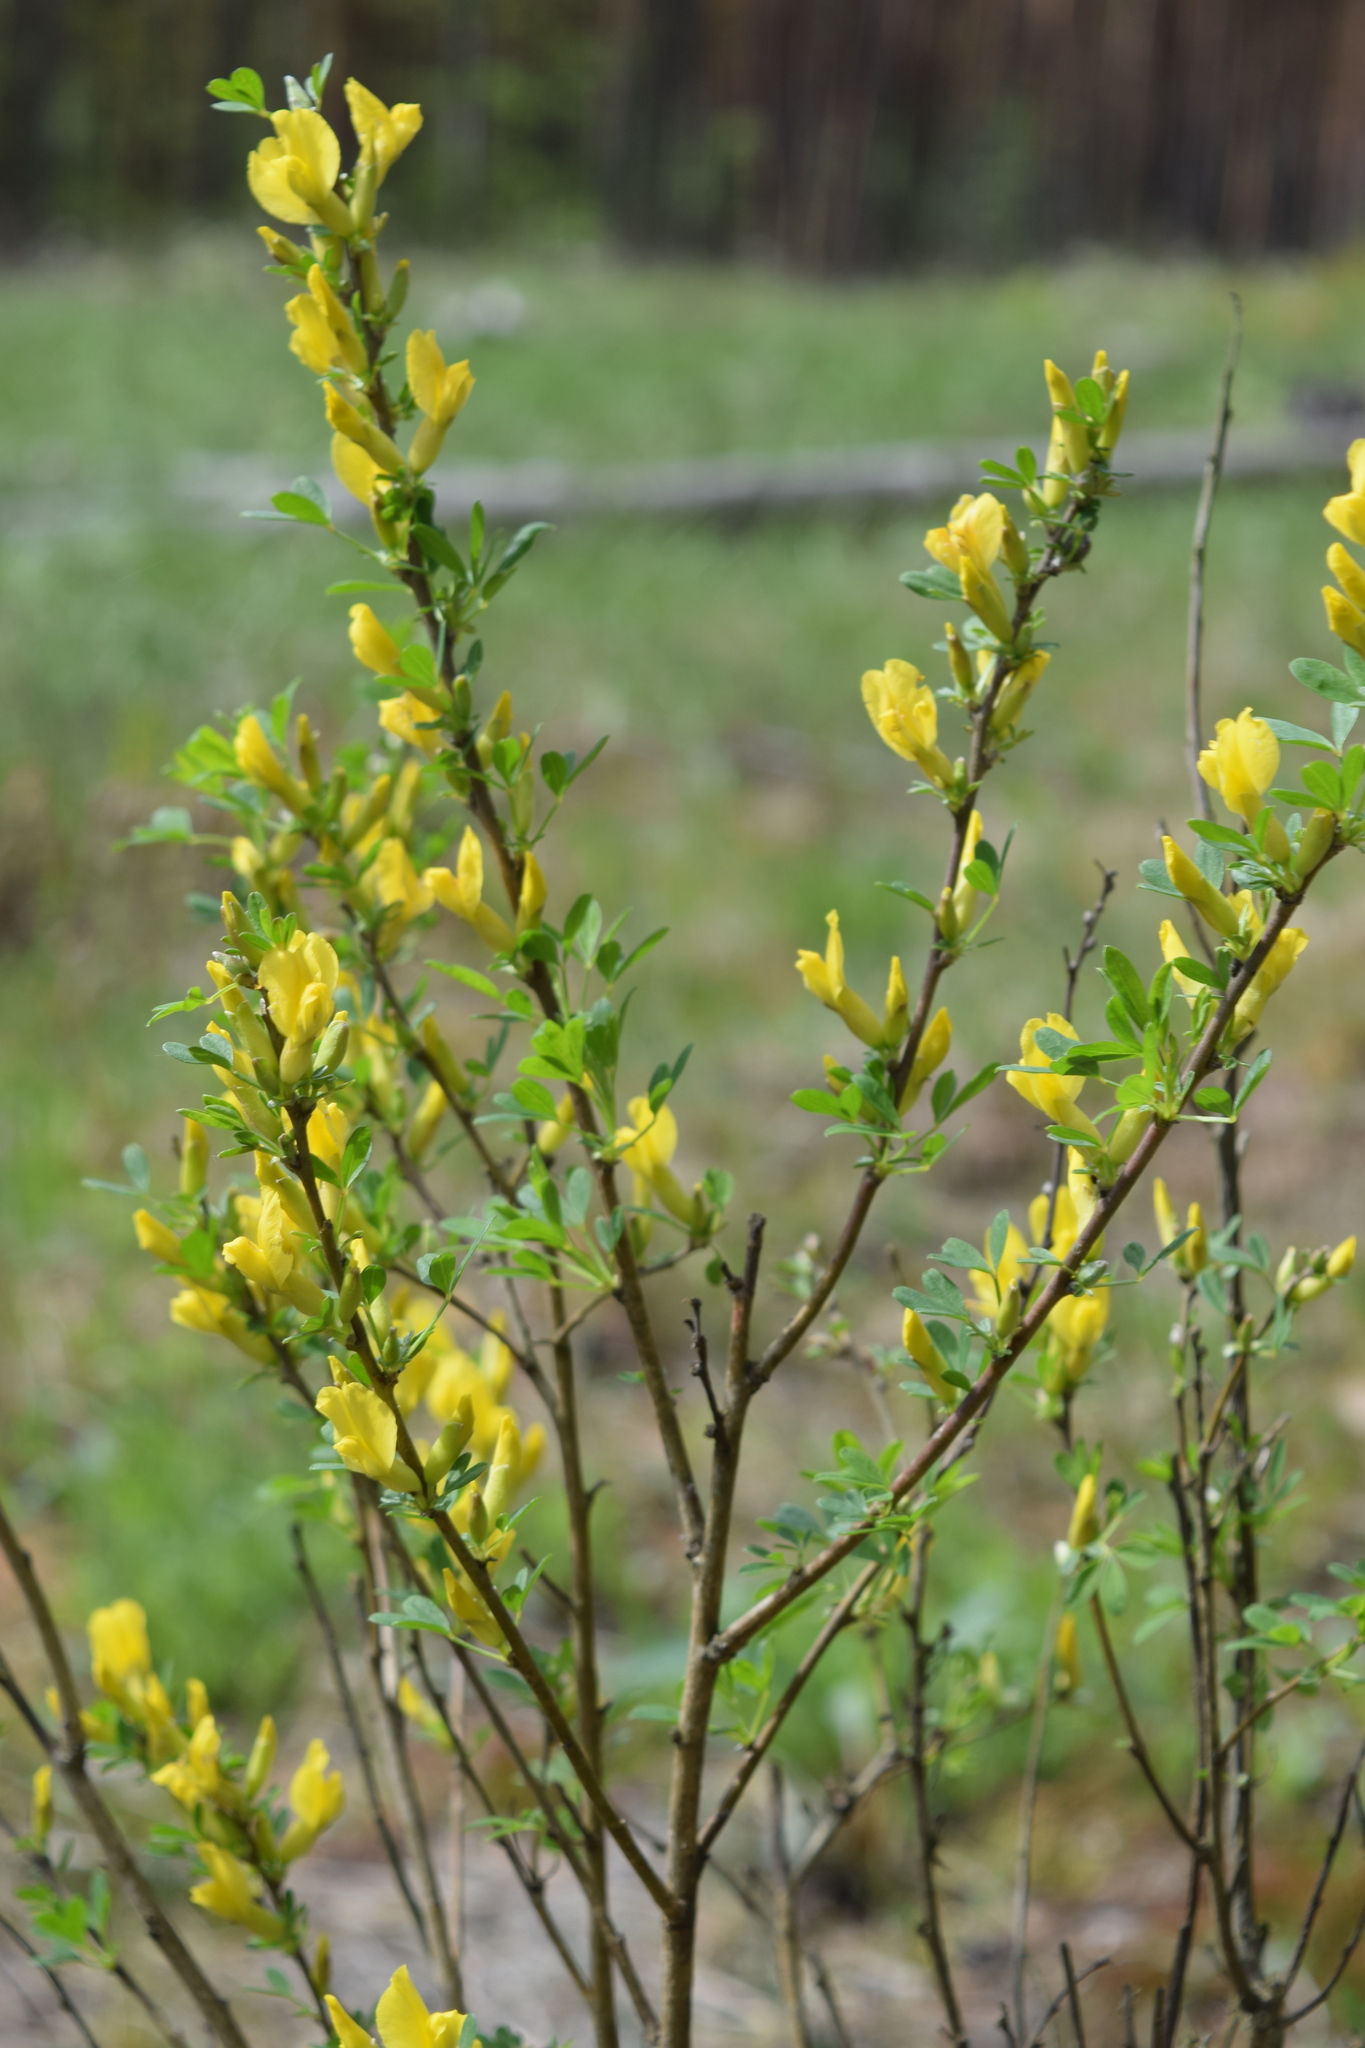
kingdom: Plantae
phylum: Tracheophyta
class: Magnoliopsida
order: Fabales
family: Fabaceae
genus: Chamaecytisus
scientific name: Chamaecytisus ruthenicus
